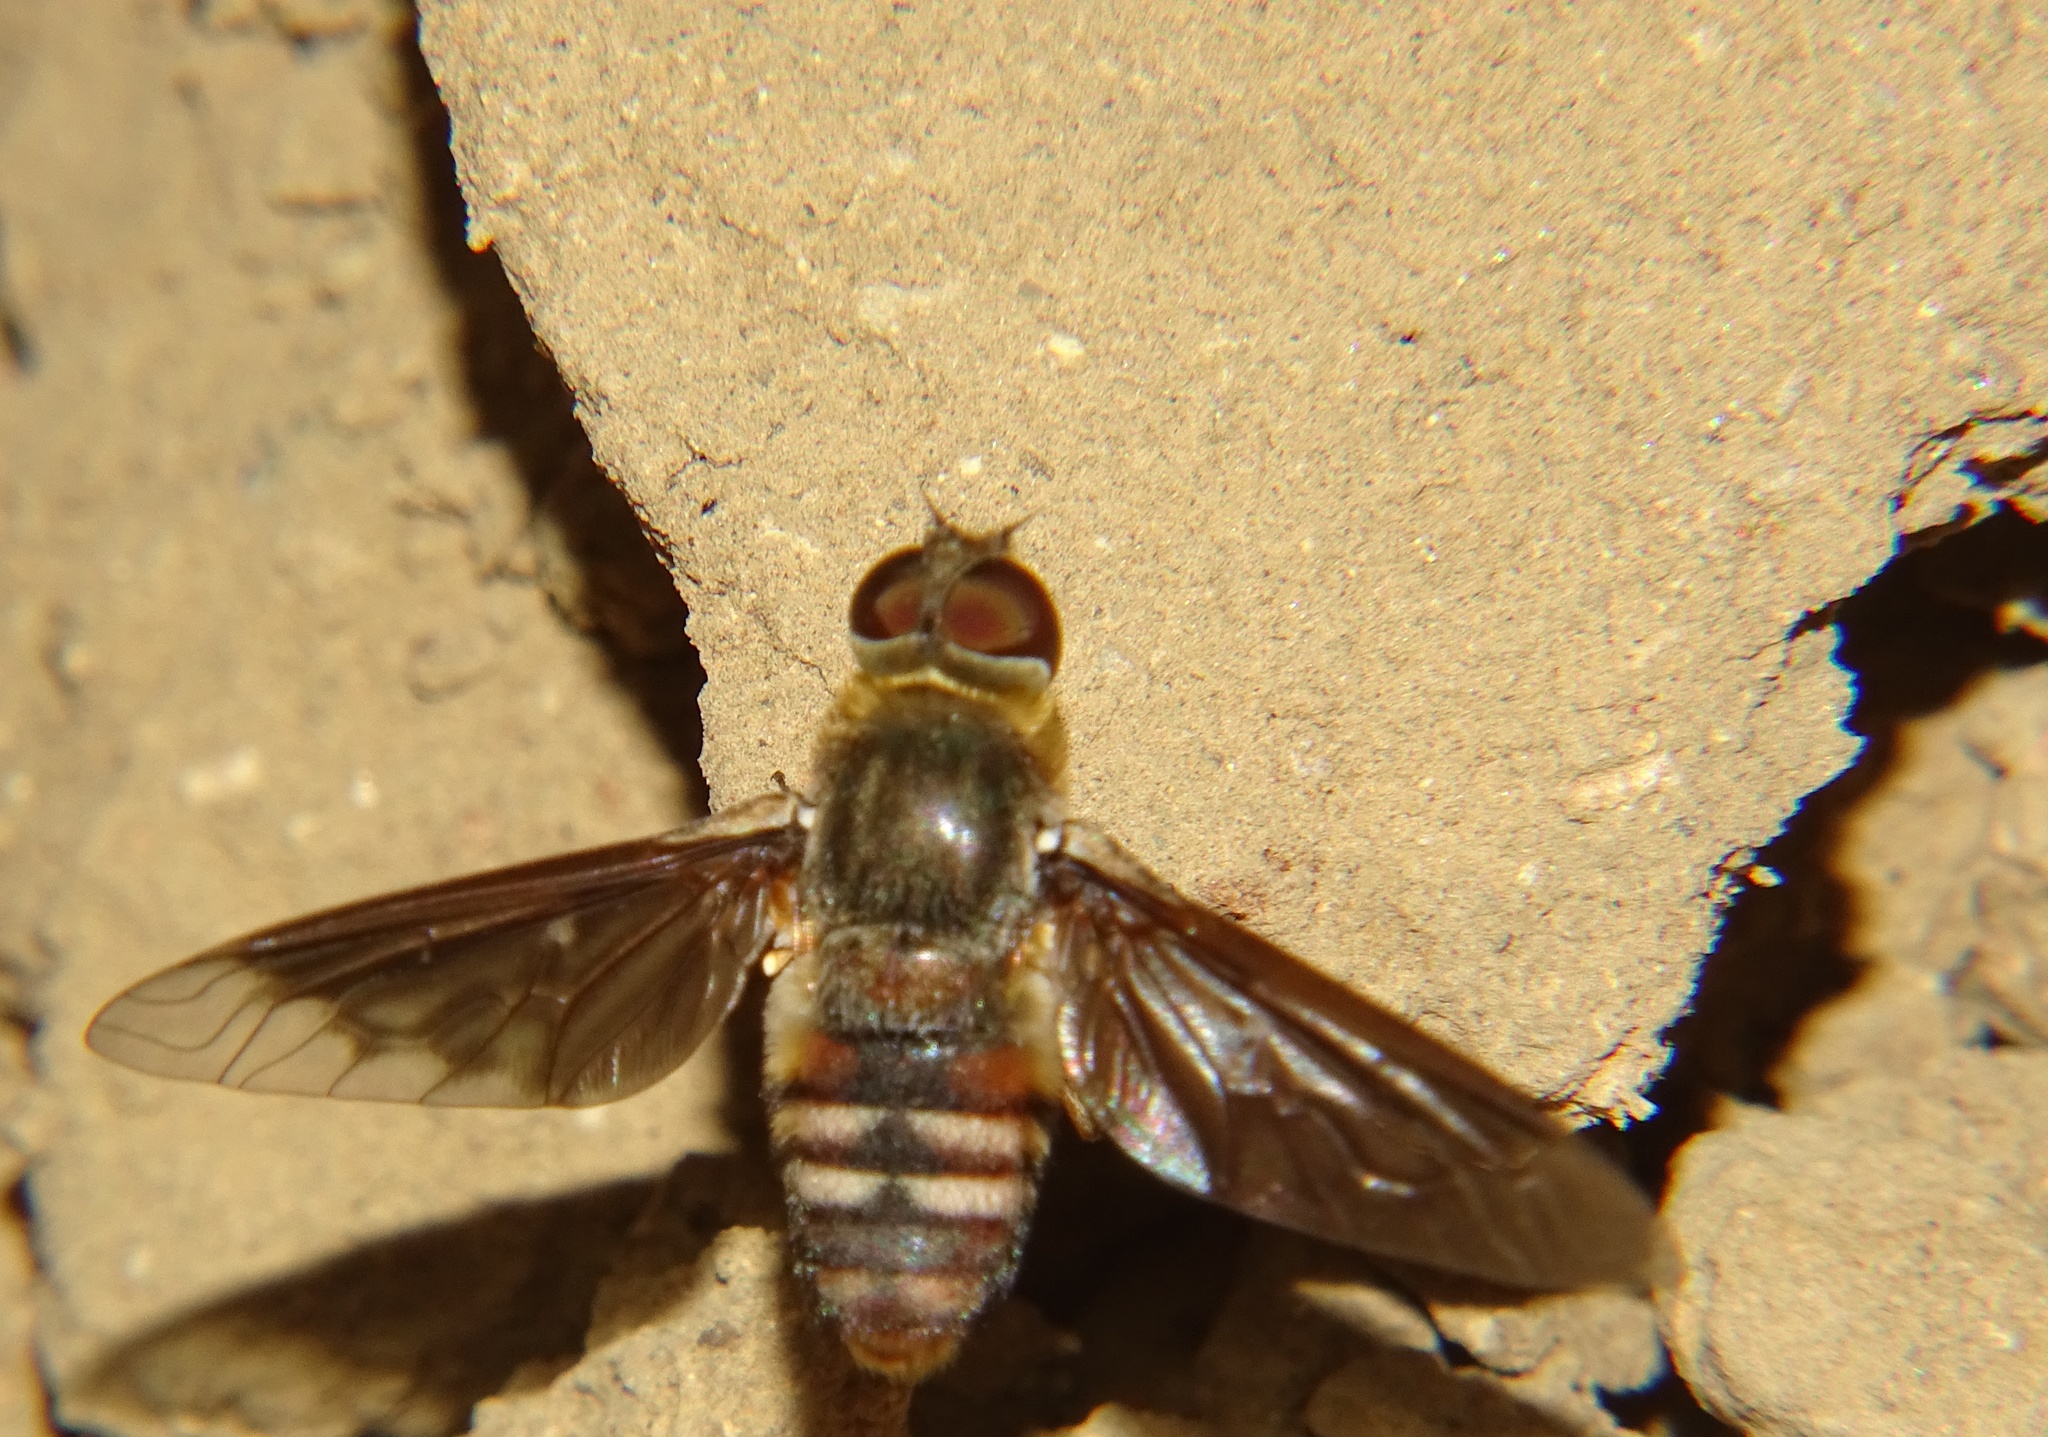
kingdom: Animalia
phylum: Arthropoda
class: Insecta
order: Diptera
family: Bombyliidae
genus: Villa
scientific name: Villa
